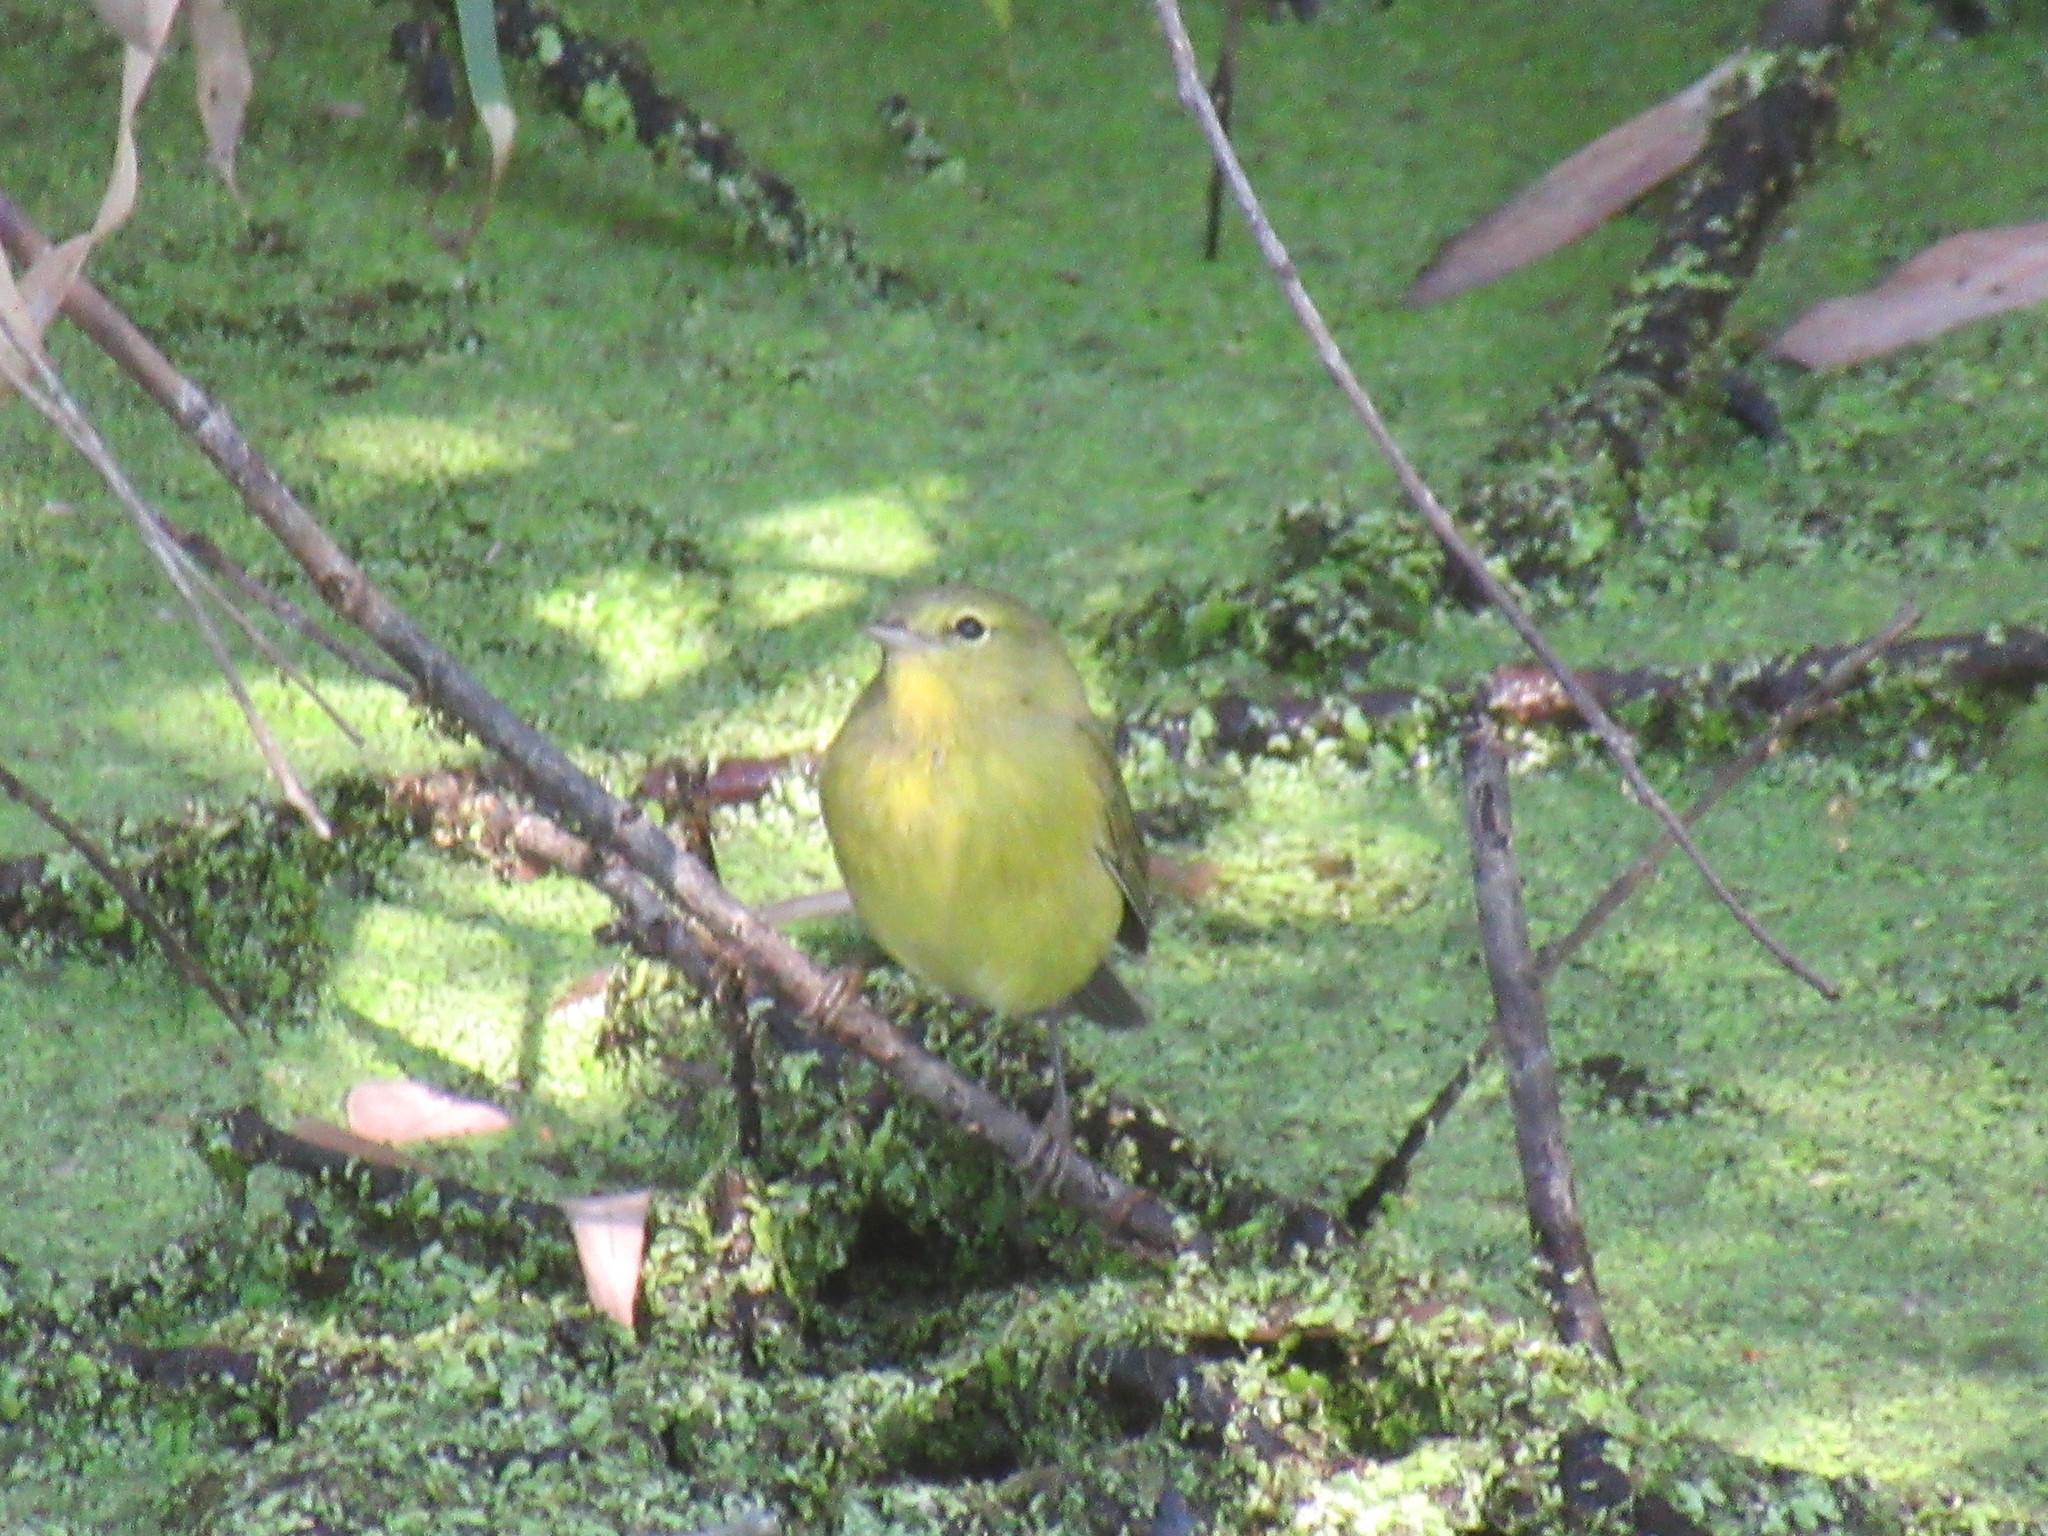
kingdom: Animalia
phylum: Chordata
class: Aves
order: Passeriformes
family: Parulidae
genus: Leiothlypis
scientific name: Leiothlypis celata
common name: Orange-crowned warbler
